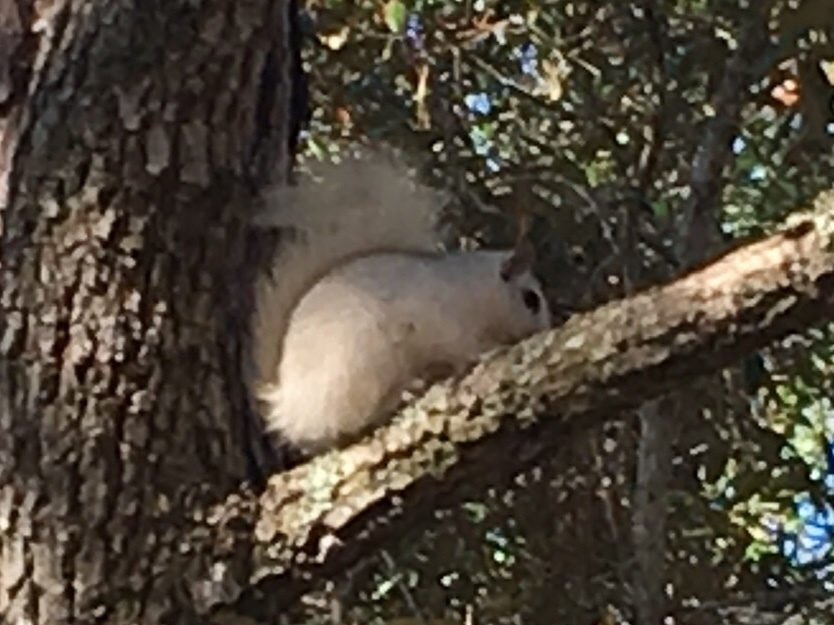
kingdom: Animalia
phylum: Chordata
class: Mammalia
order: Rodentia
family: Sciuridae
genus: Sciurus
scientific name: Sciurus carolinensis
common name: Eastern gray squirrel
